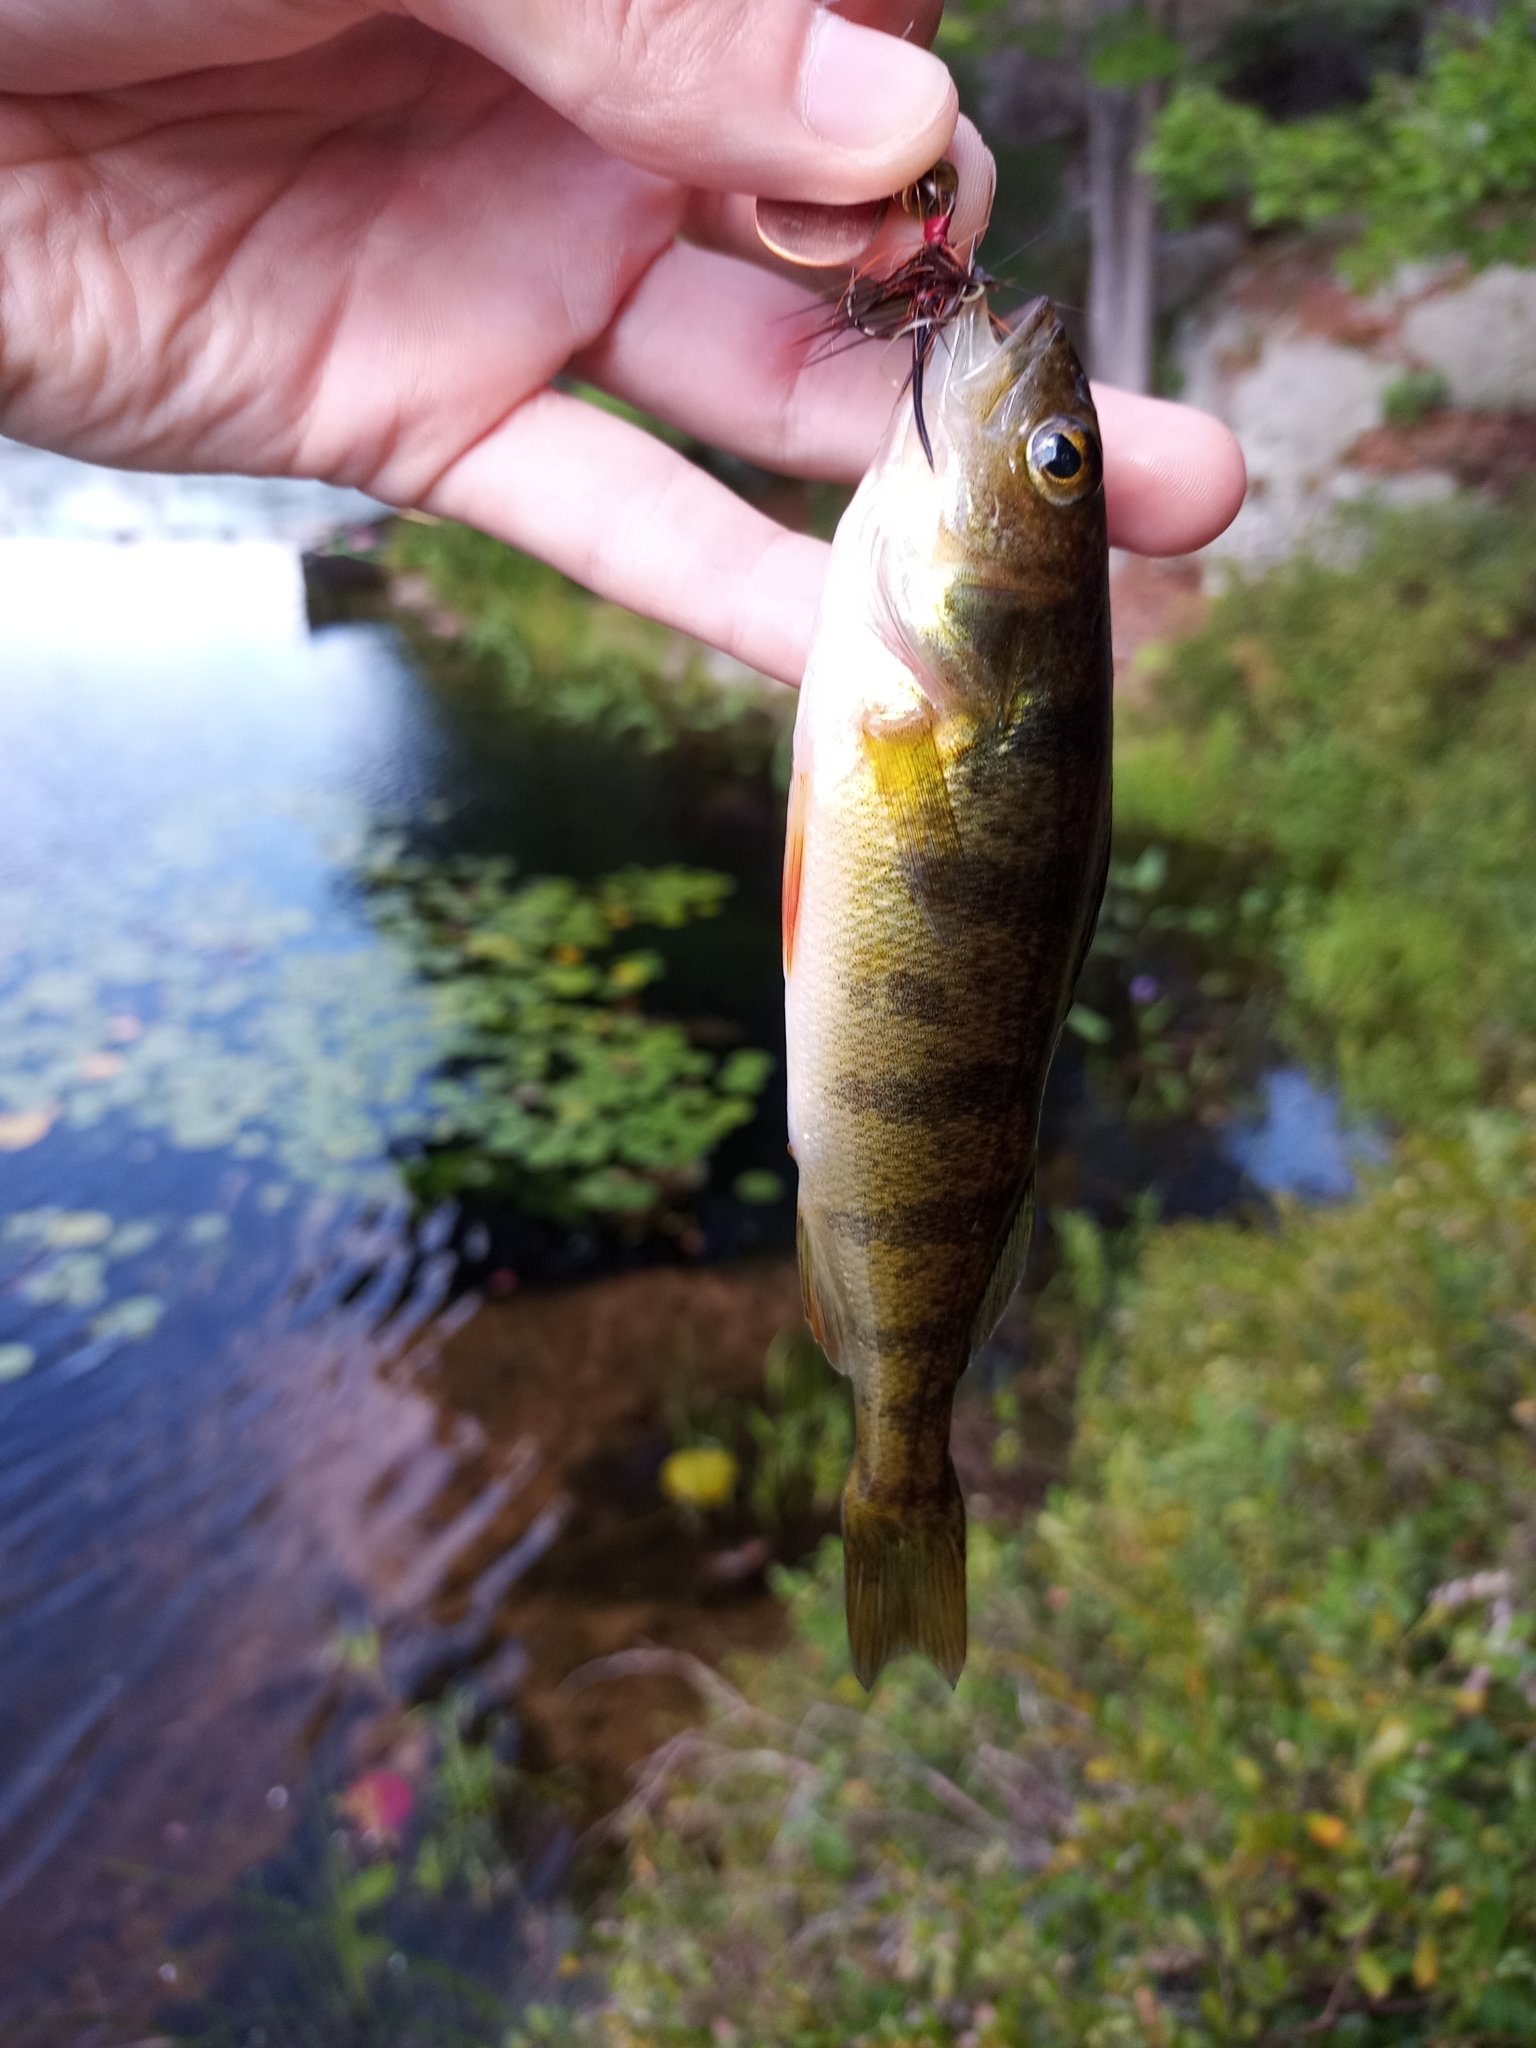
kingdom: Animalia
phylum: Chordata
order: Perciformes
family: Percidae
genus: Perca
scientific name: Perca flavescens
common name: Yellow perch
